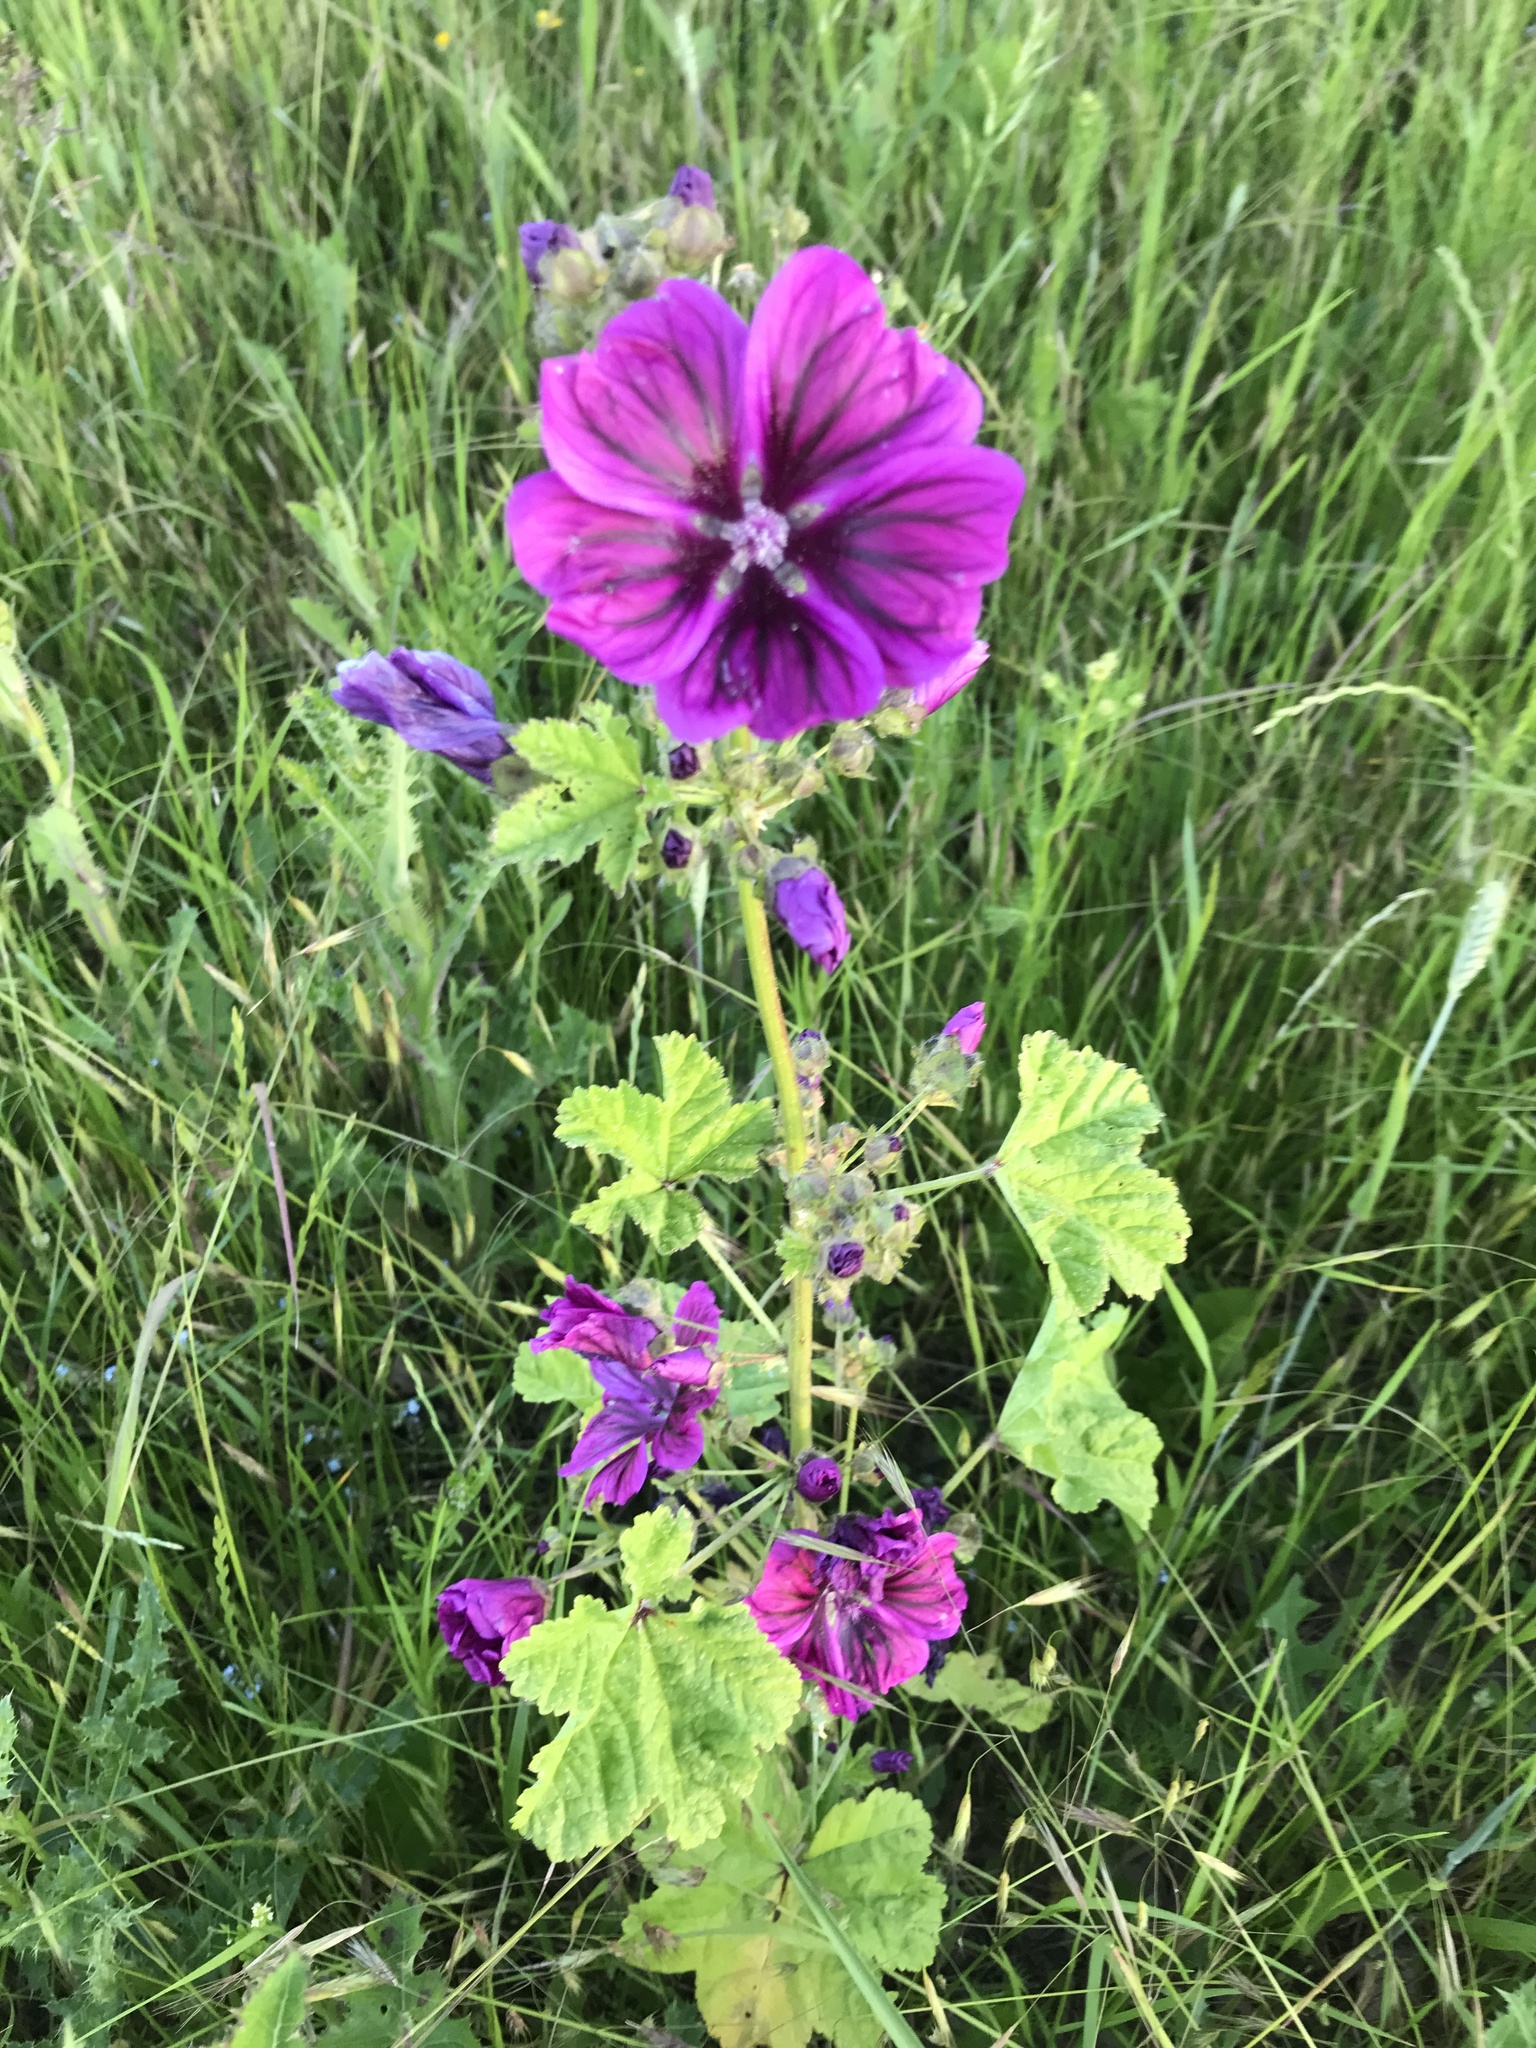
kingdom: Plantae
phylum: Tracheophyta
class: Magnoliopsida
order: Malvales
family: Malvaceae
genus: Malva
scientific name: Malva sylvestris
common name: Common mallow
